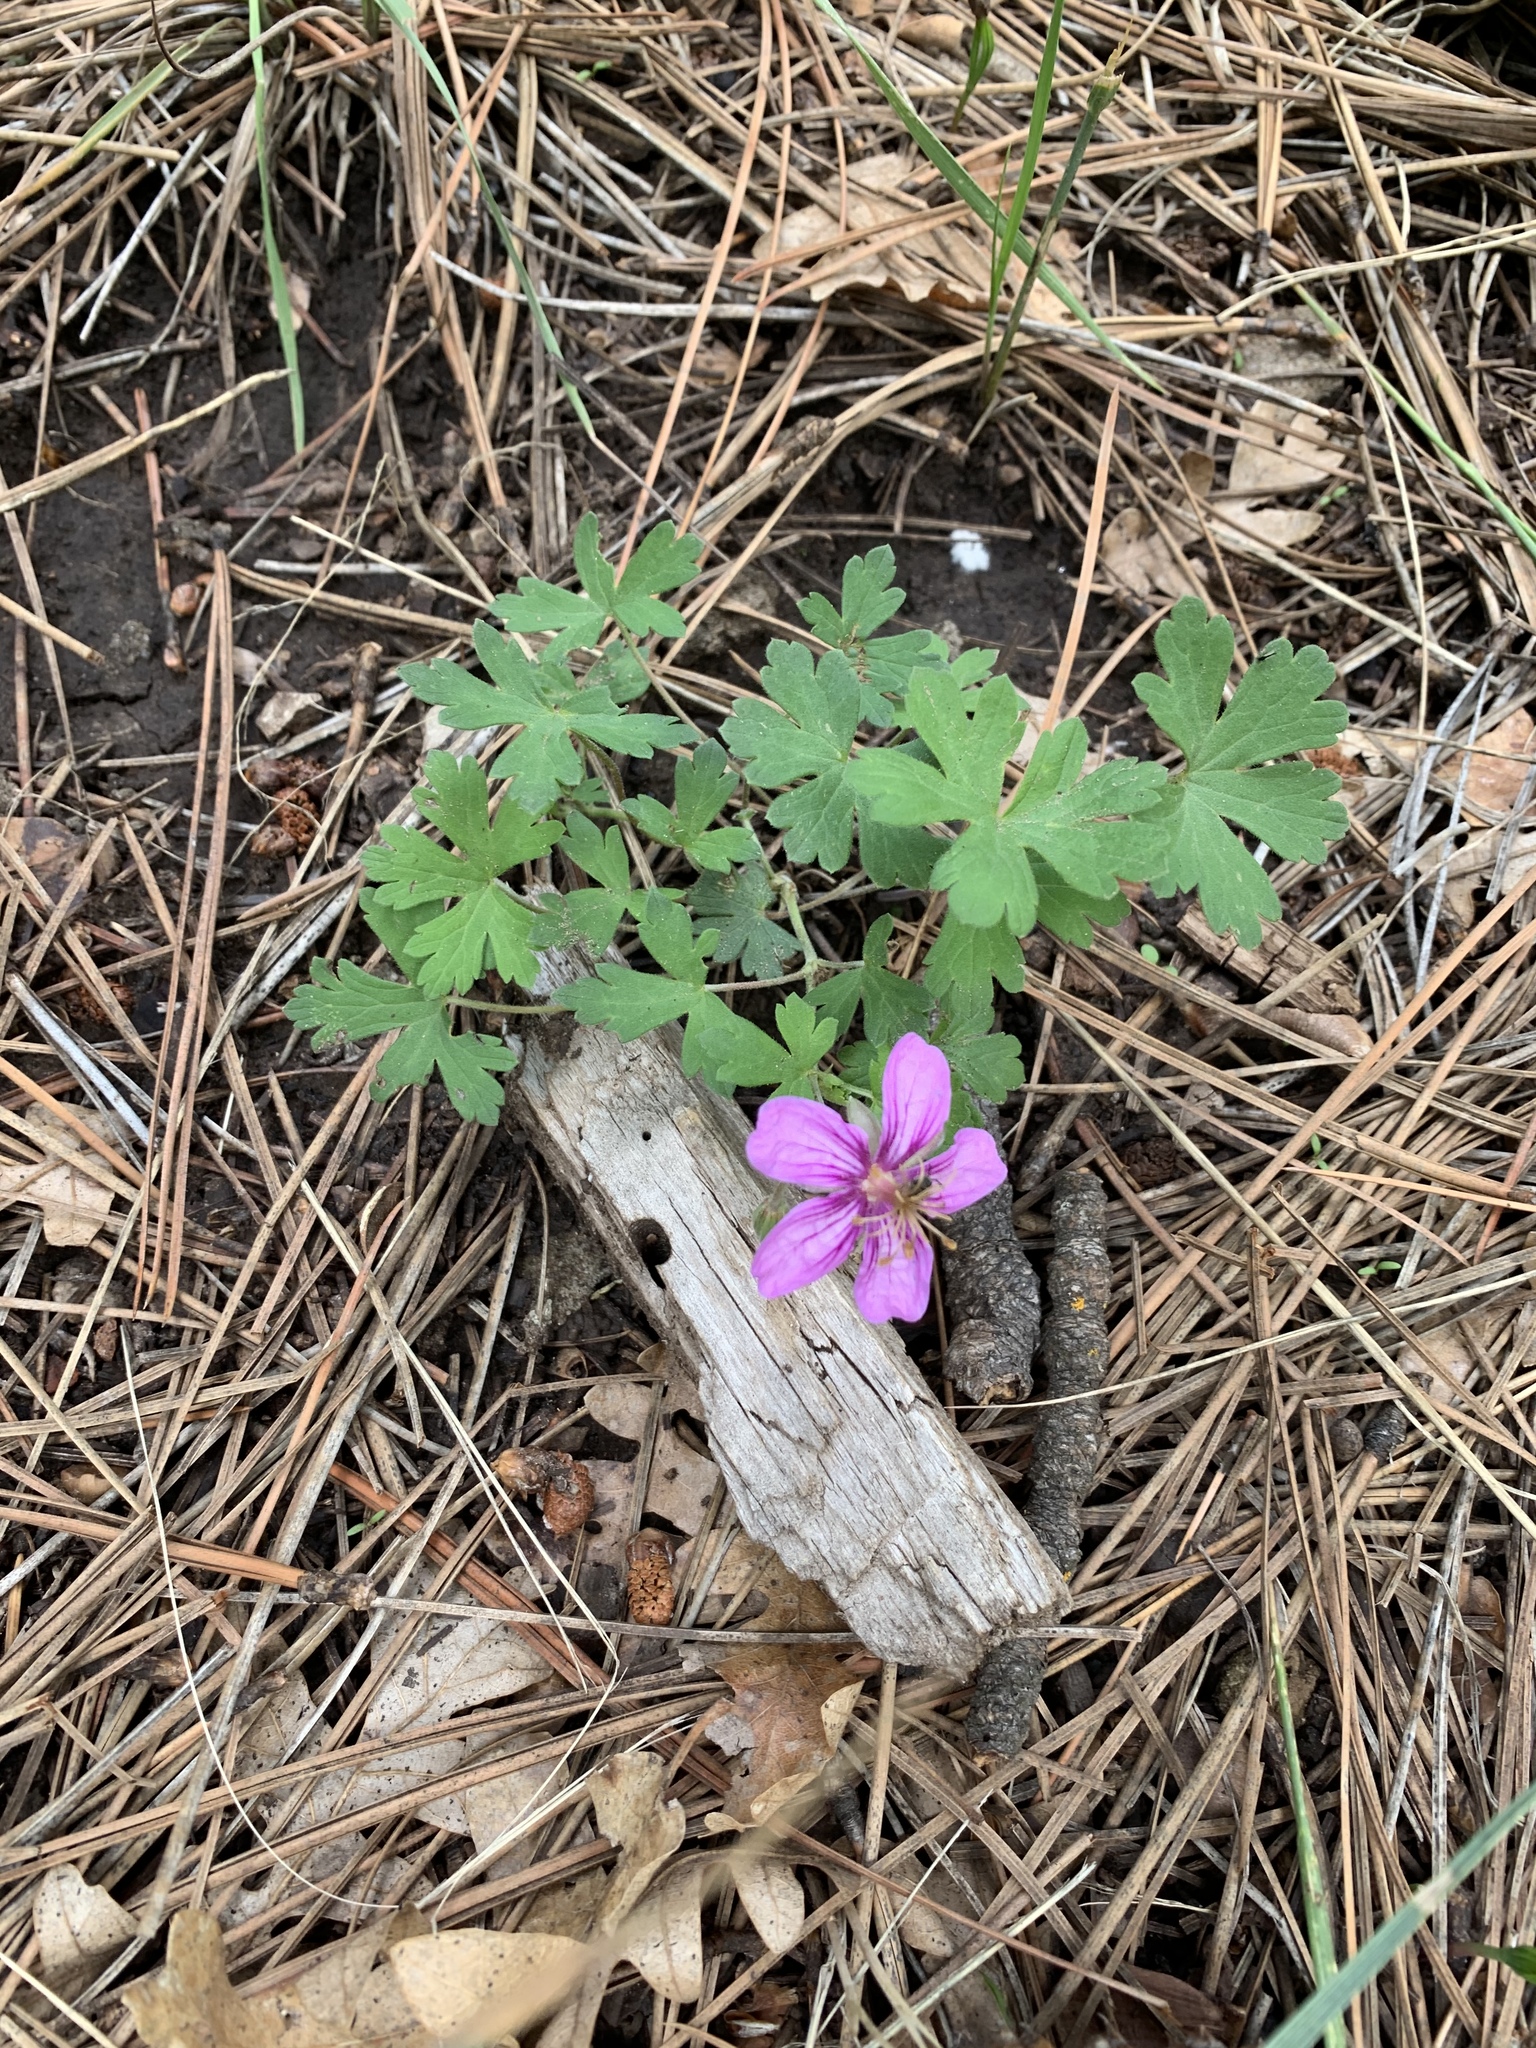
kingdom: Plantae
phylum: Tracheophyta
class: Magnoliopsida
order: Geraniales
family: Geraniaceae
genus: Geranium
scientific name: Geranium caespitosum
